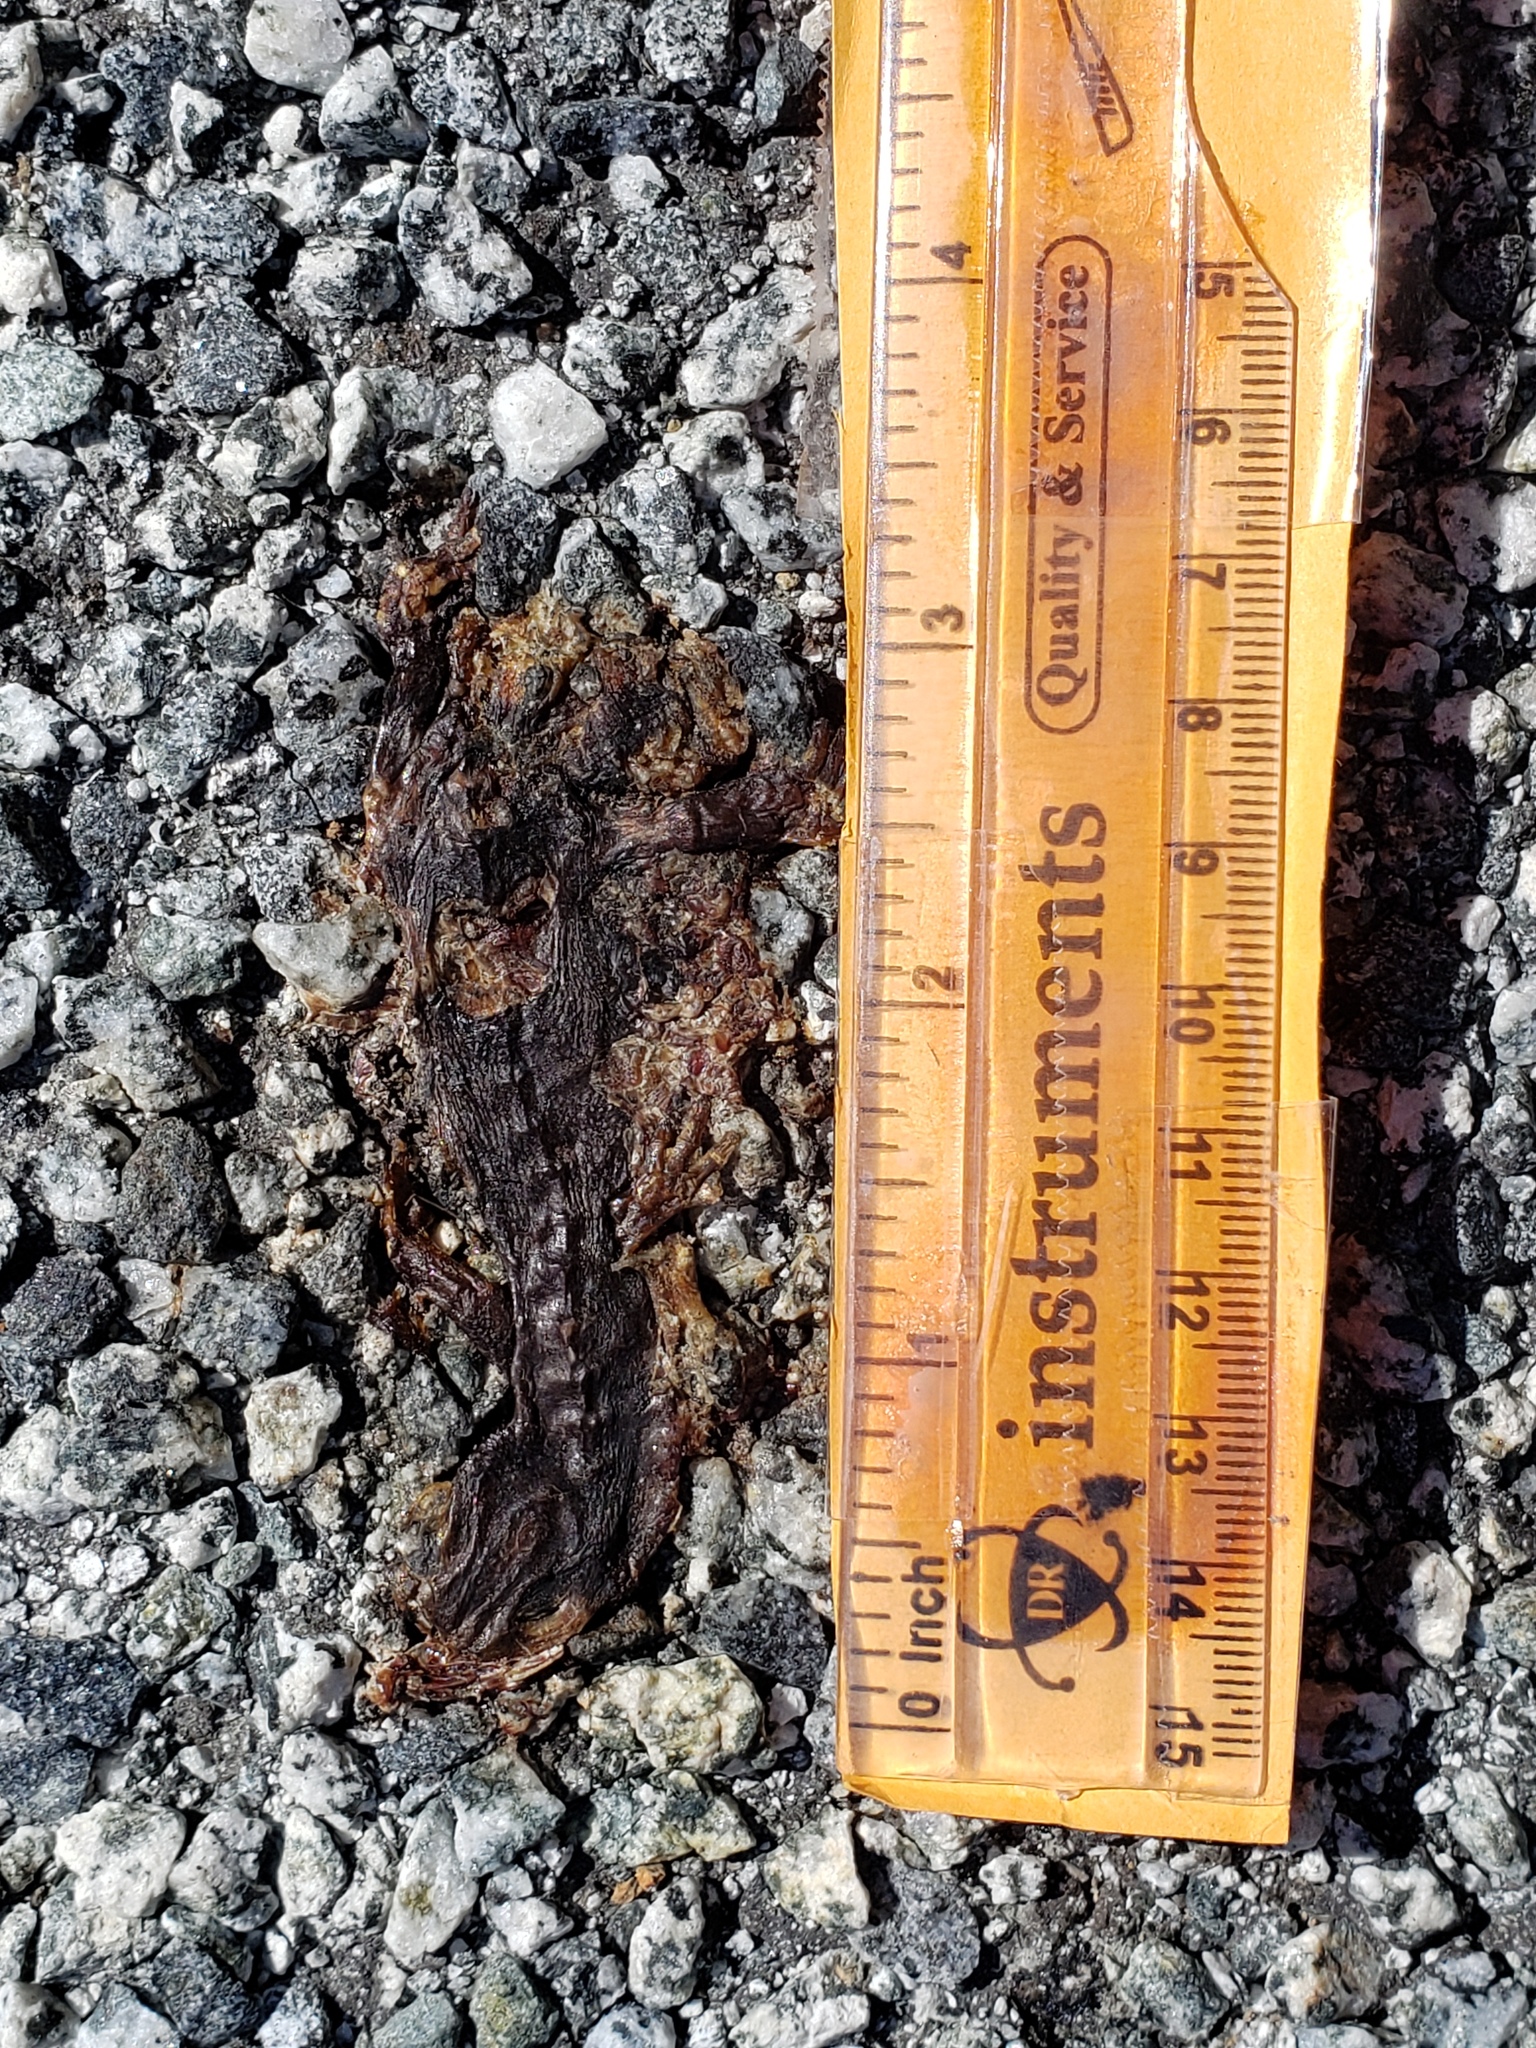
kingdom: Animalia
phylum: Chordata
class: Amphibia
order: Caudata
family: Salamandridae
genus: Taricha
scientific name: Taricha
